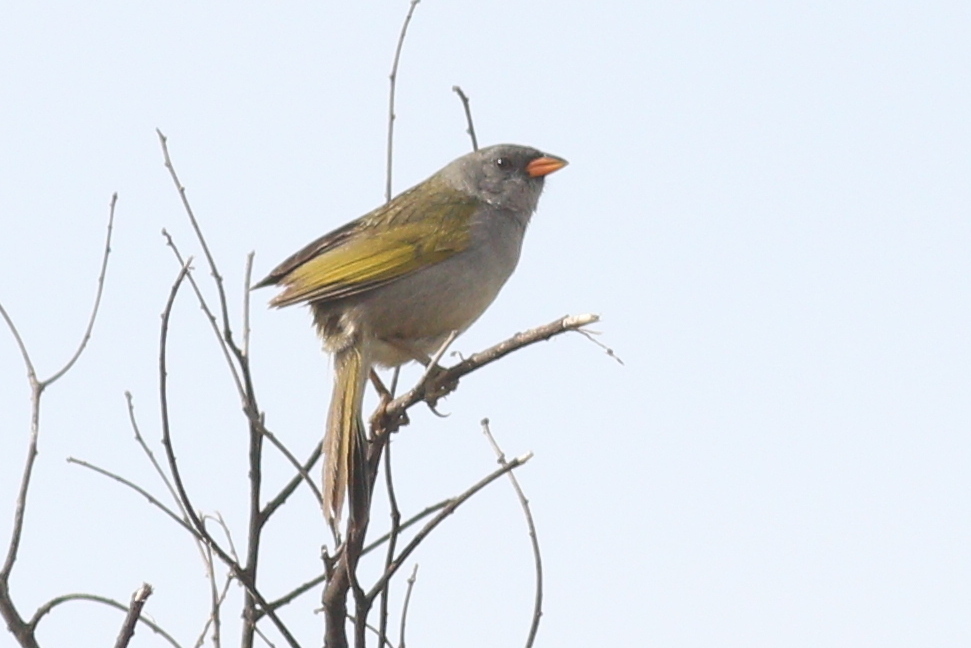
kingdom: Animalia
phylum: Chordata
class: Aves
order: Passeriformes
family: Thraupidae
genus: Embernagra
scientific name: Embernagra platensis
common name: Pampa finch
